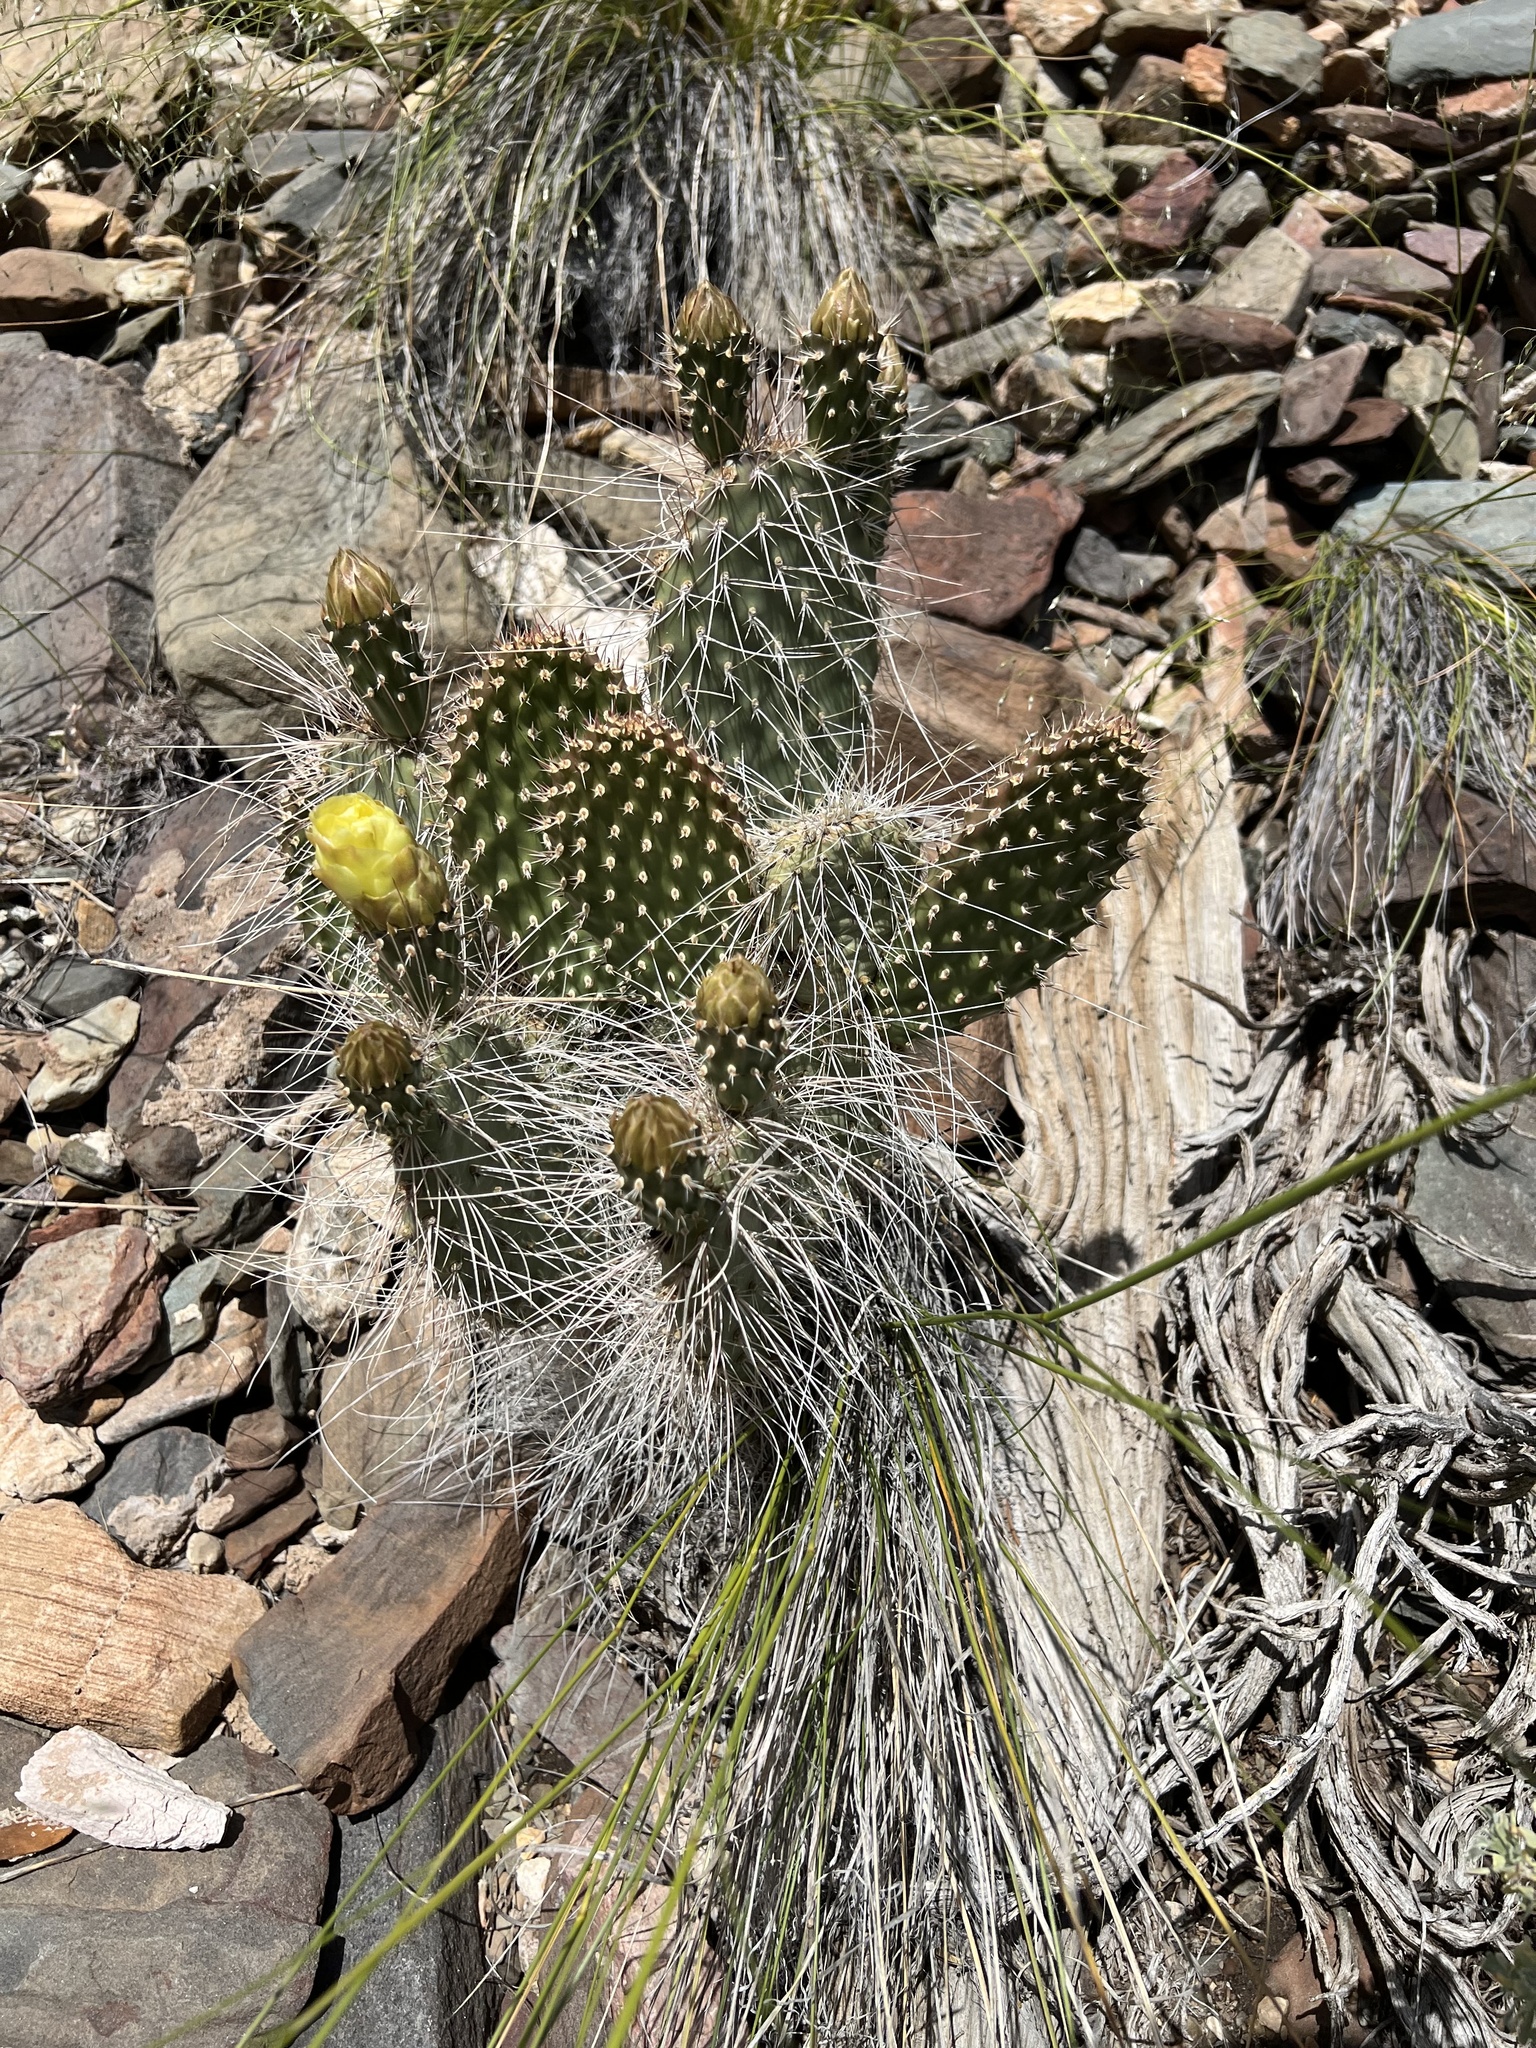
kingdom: Plantae
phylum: Tracheophyta
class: Magnoliopsida
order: Caryophyllales
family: Cactaceae
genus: Opuntia
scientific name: Opuntia polyacantha
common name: Plains prickly-pear
